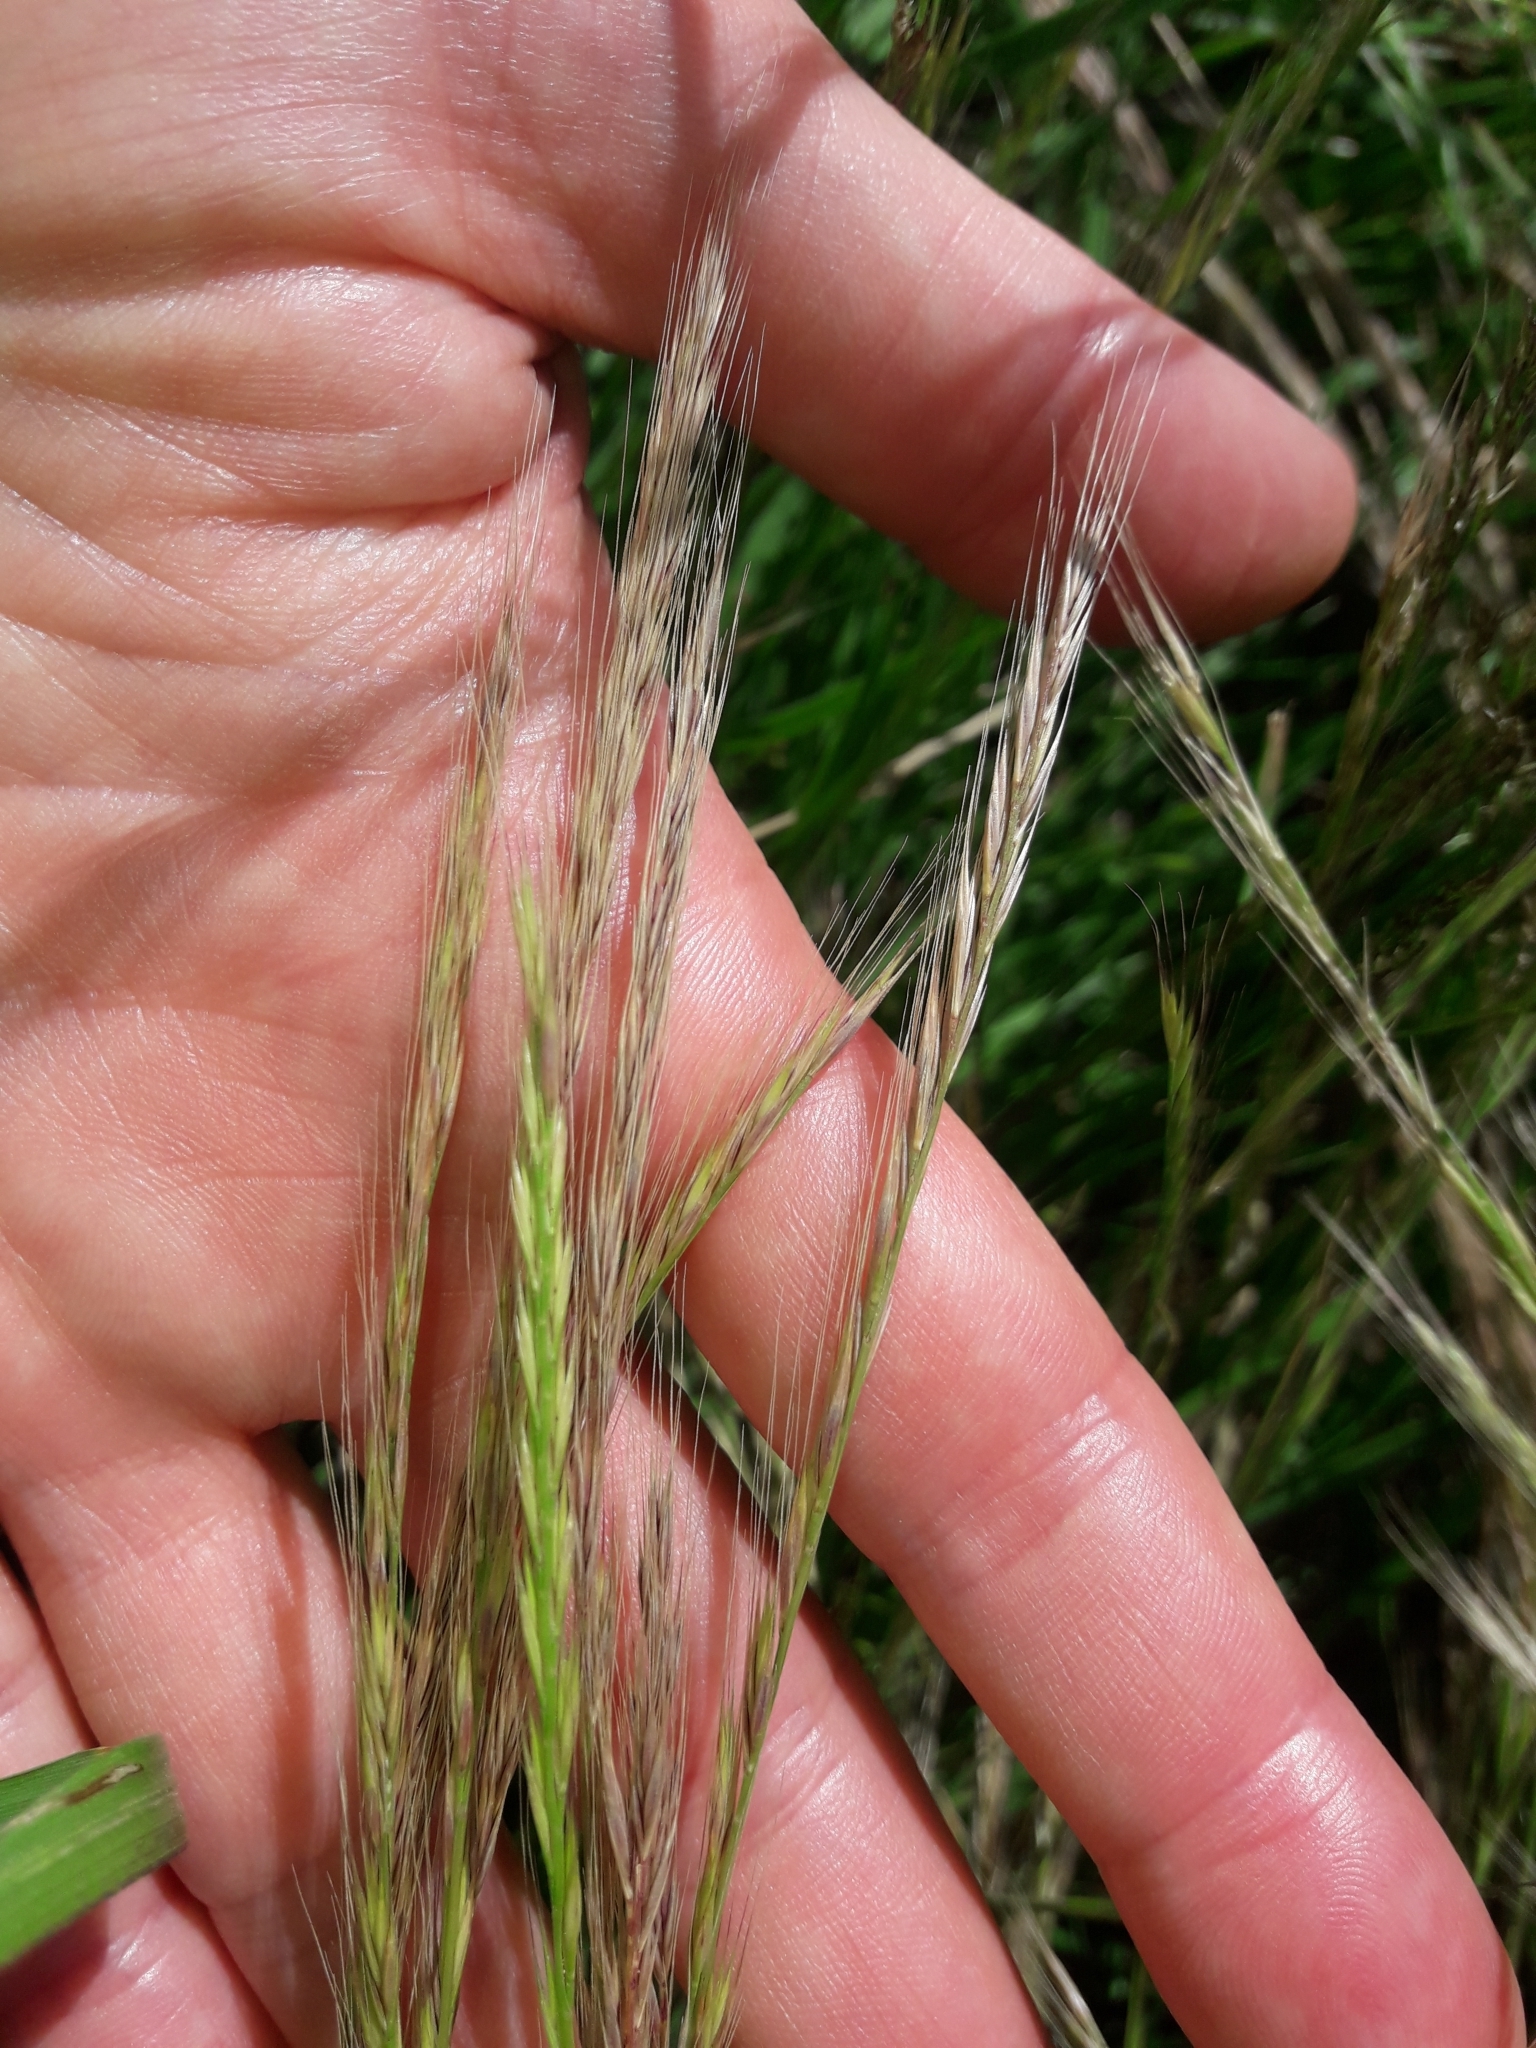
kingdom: Plantae
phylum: Tracheophyta
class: Liliopsida
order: Poales
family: Poaceae
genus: Festuca
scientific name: Festuca myuros
